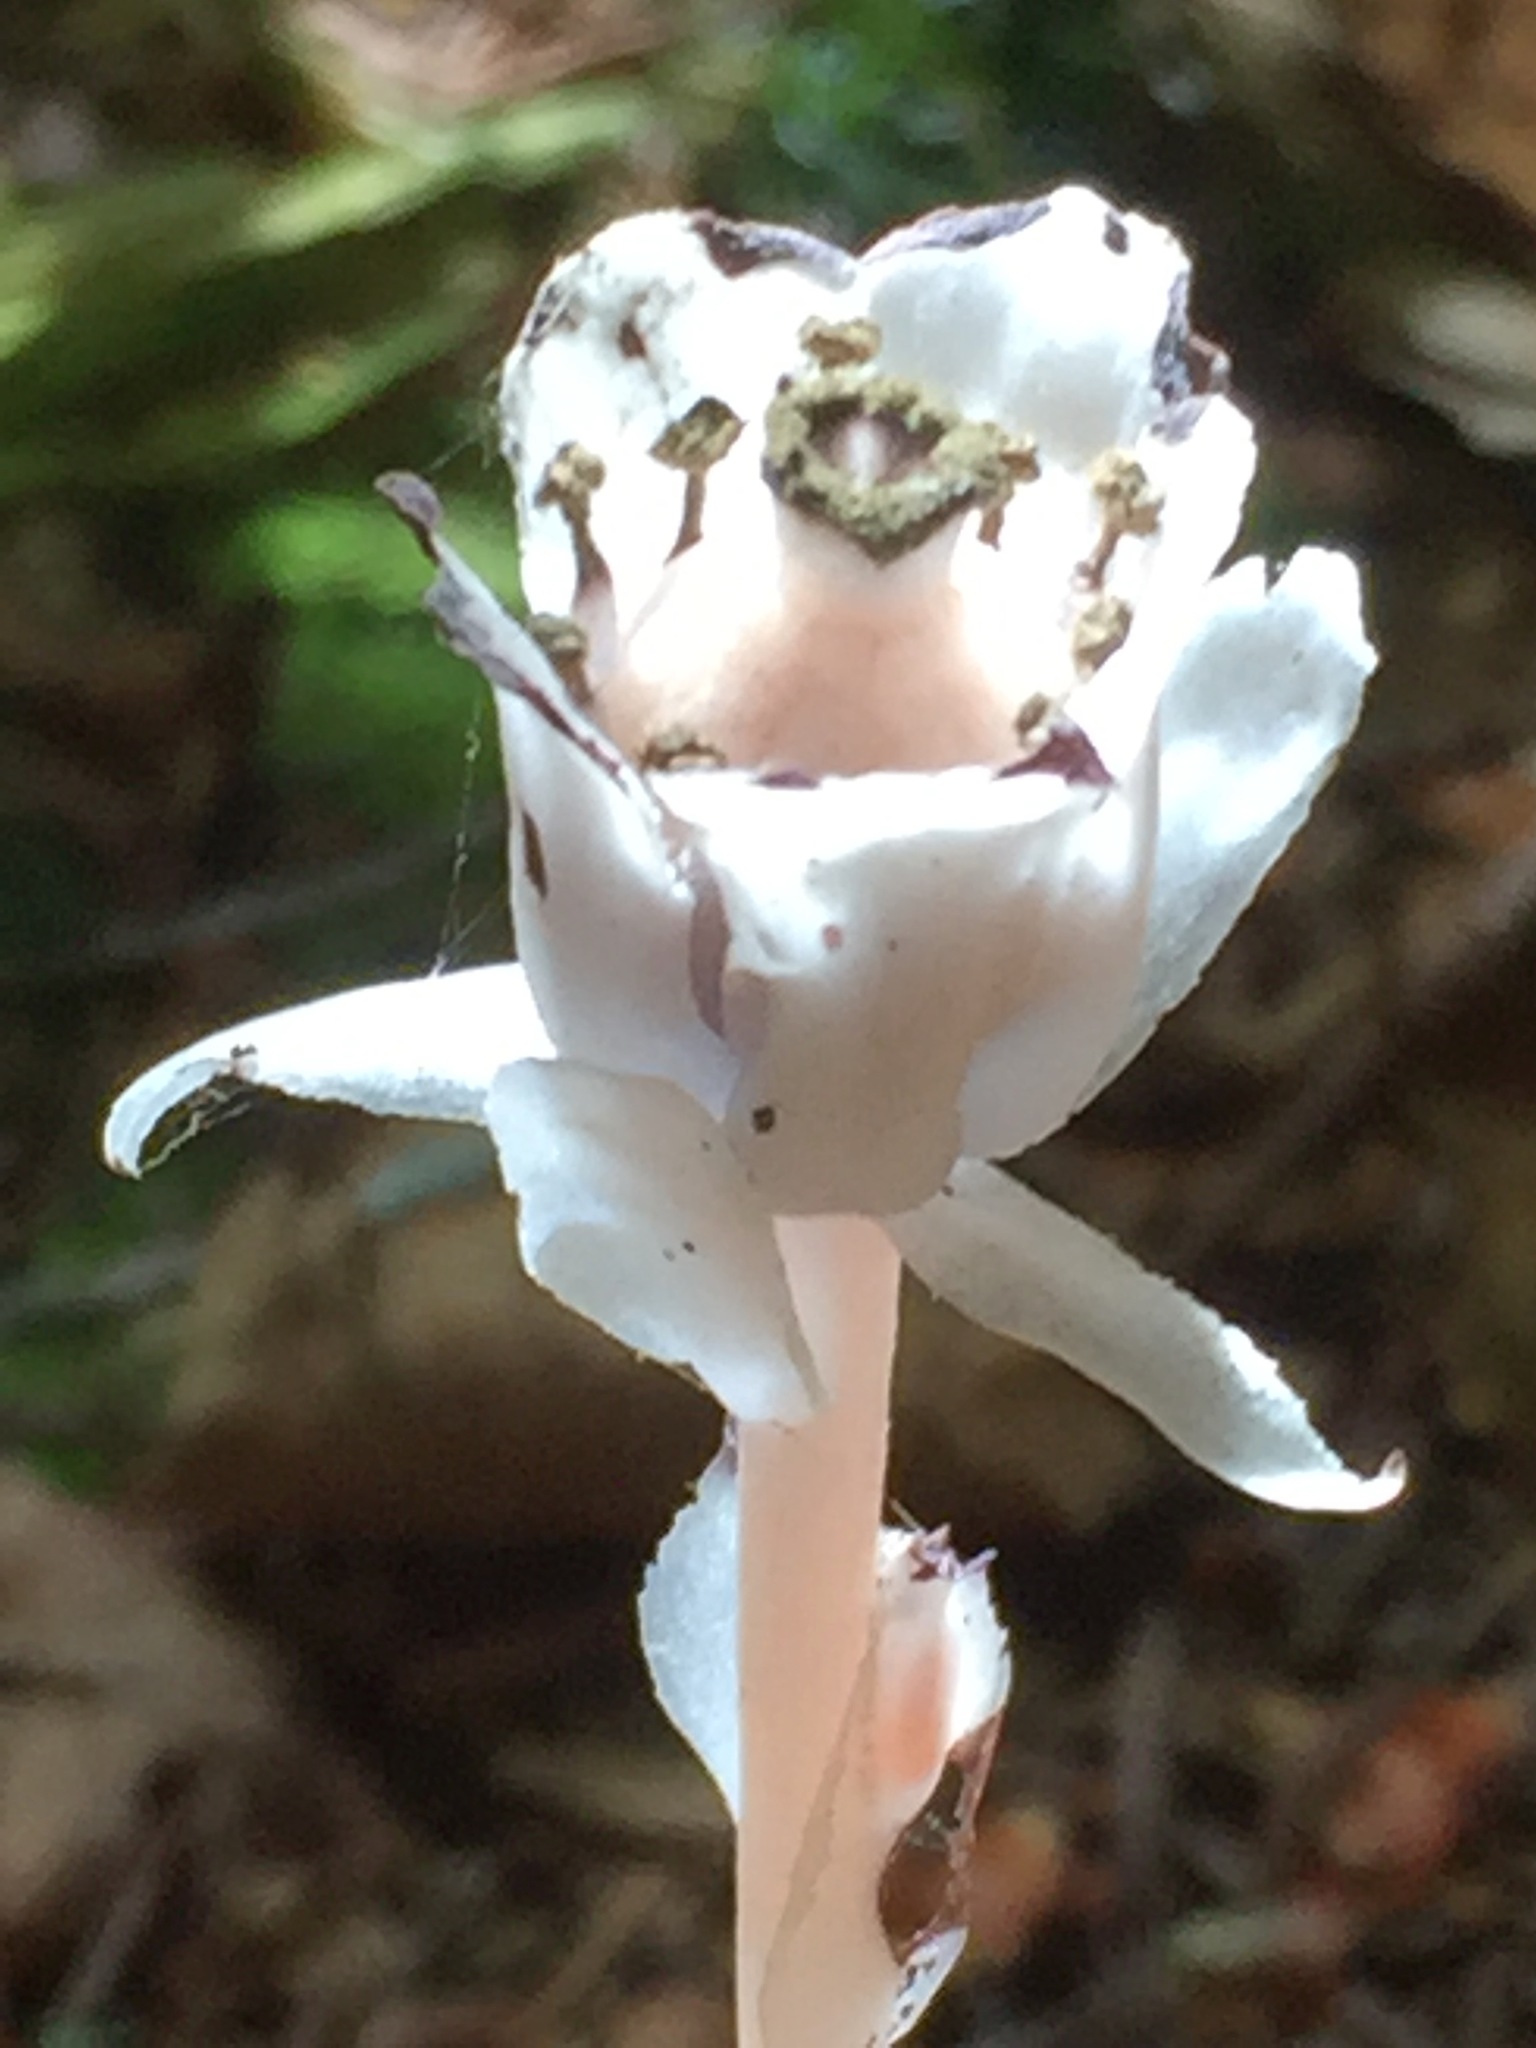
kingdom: Plantae
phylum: Tracheophyta
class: Magnoliopsida
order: Ericales
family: Ericaceae
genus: Monotropa
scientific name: Monotropa uniflora
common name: Convulsion root
